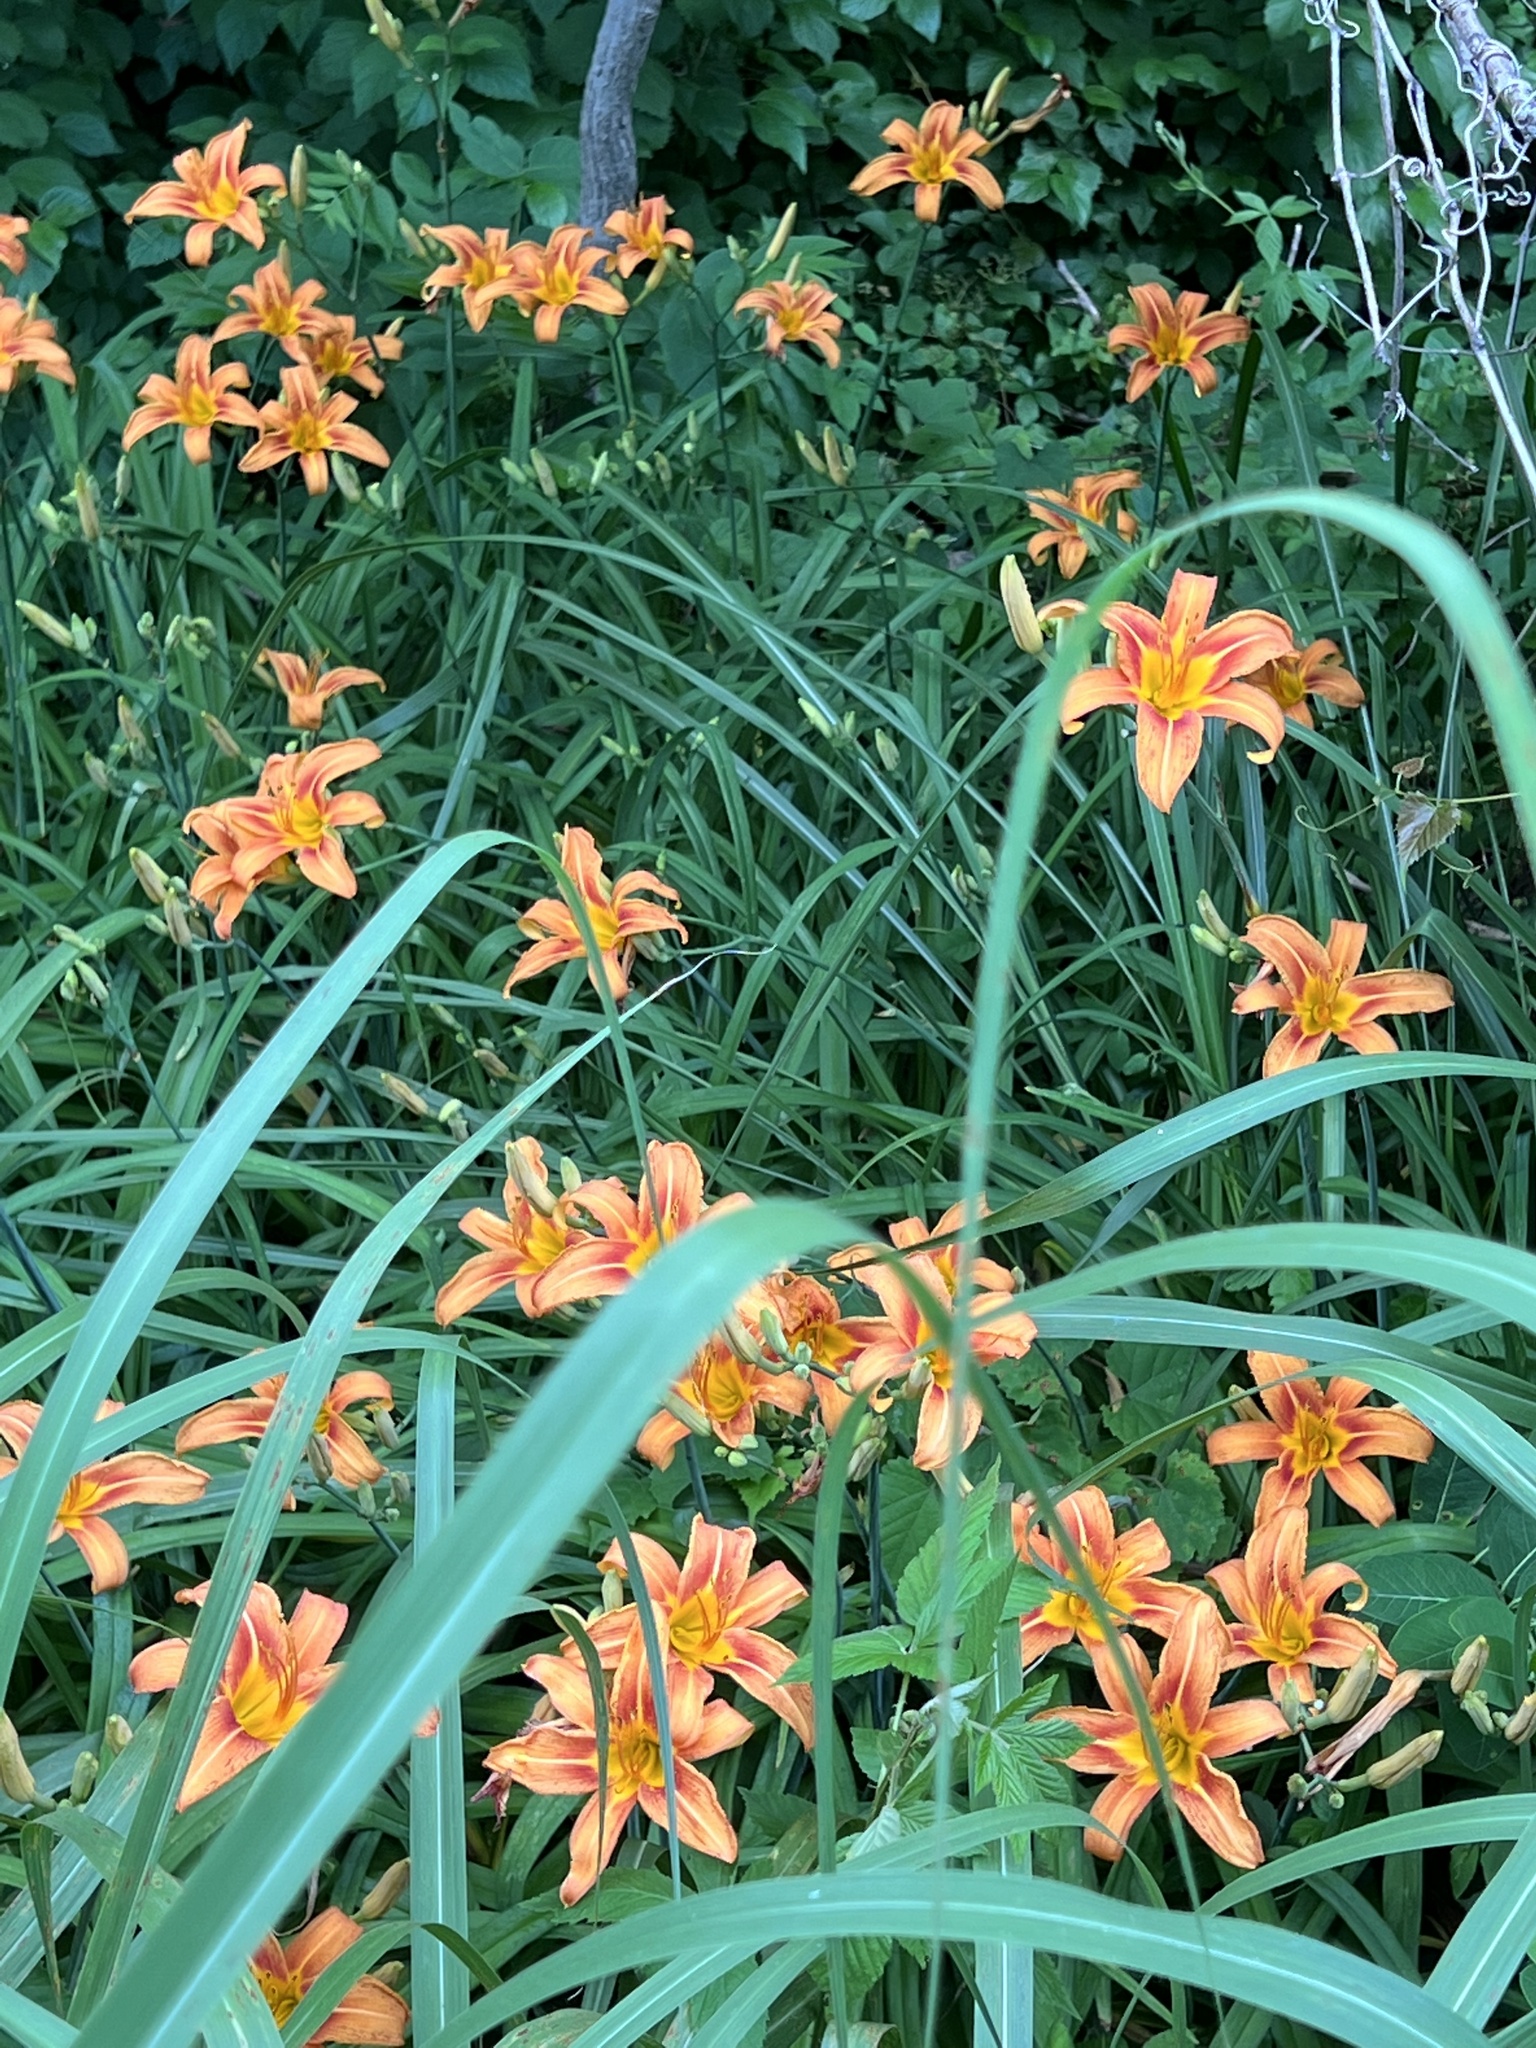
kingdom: Plantae
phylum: Tracheophyta
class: Liliopsida
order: Asparagales
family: Asphodelaceae
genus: Hemerocallis
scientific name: Hemerocallis fulva
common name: Orange day-lily
